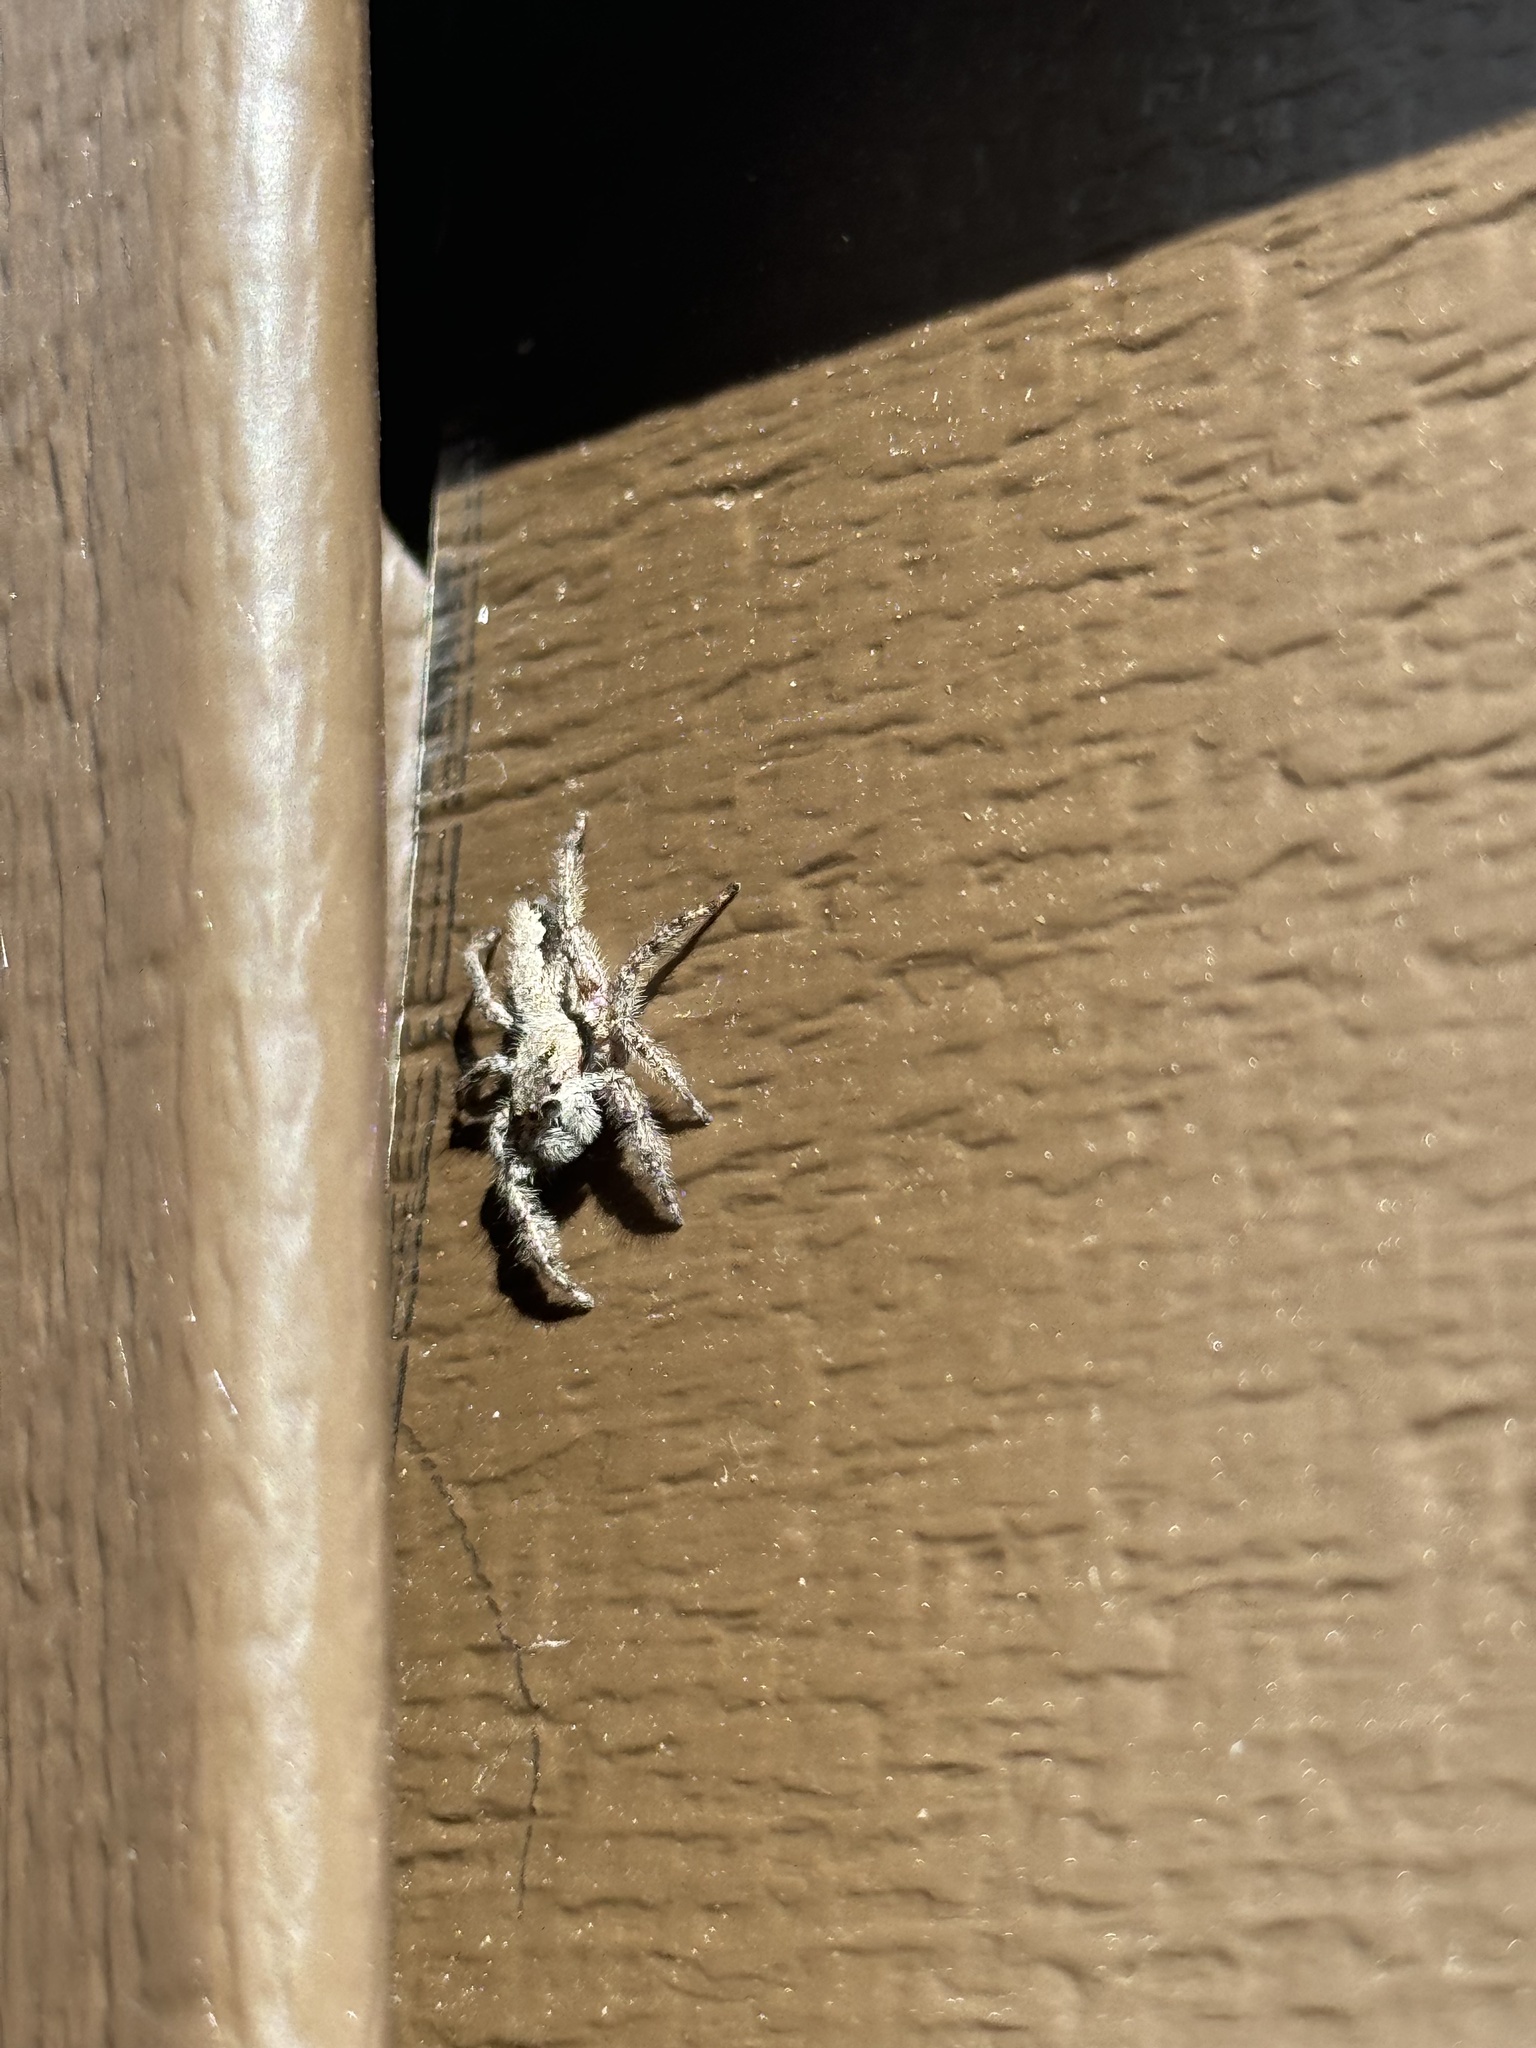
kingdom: Animalia
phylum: Arthropoda
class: Arachnida
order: Araneae
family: Salticidae
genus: Platycryptus
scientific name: Platycryptus undatus
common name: Tan jumping spider
